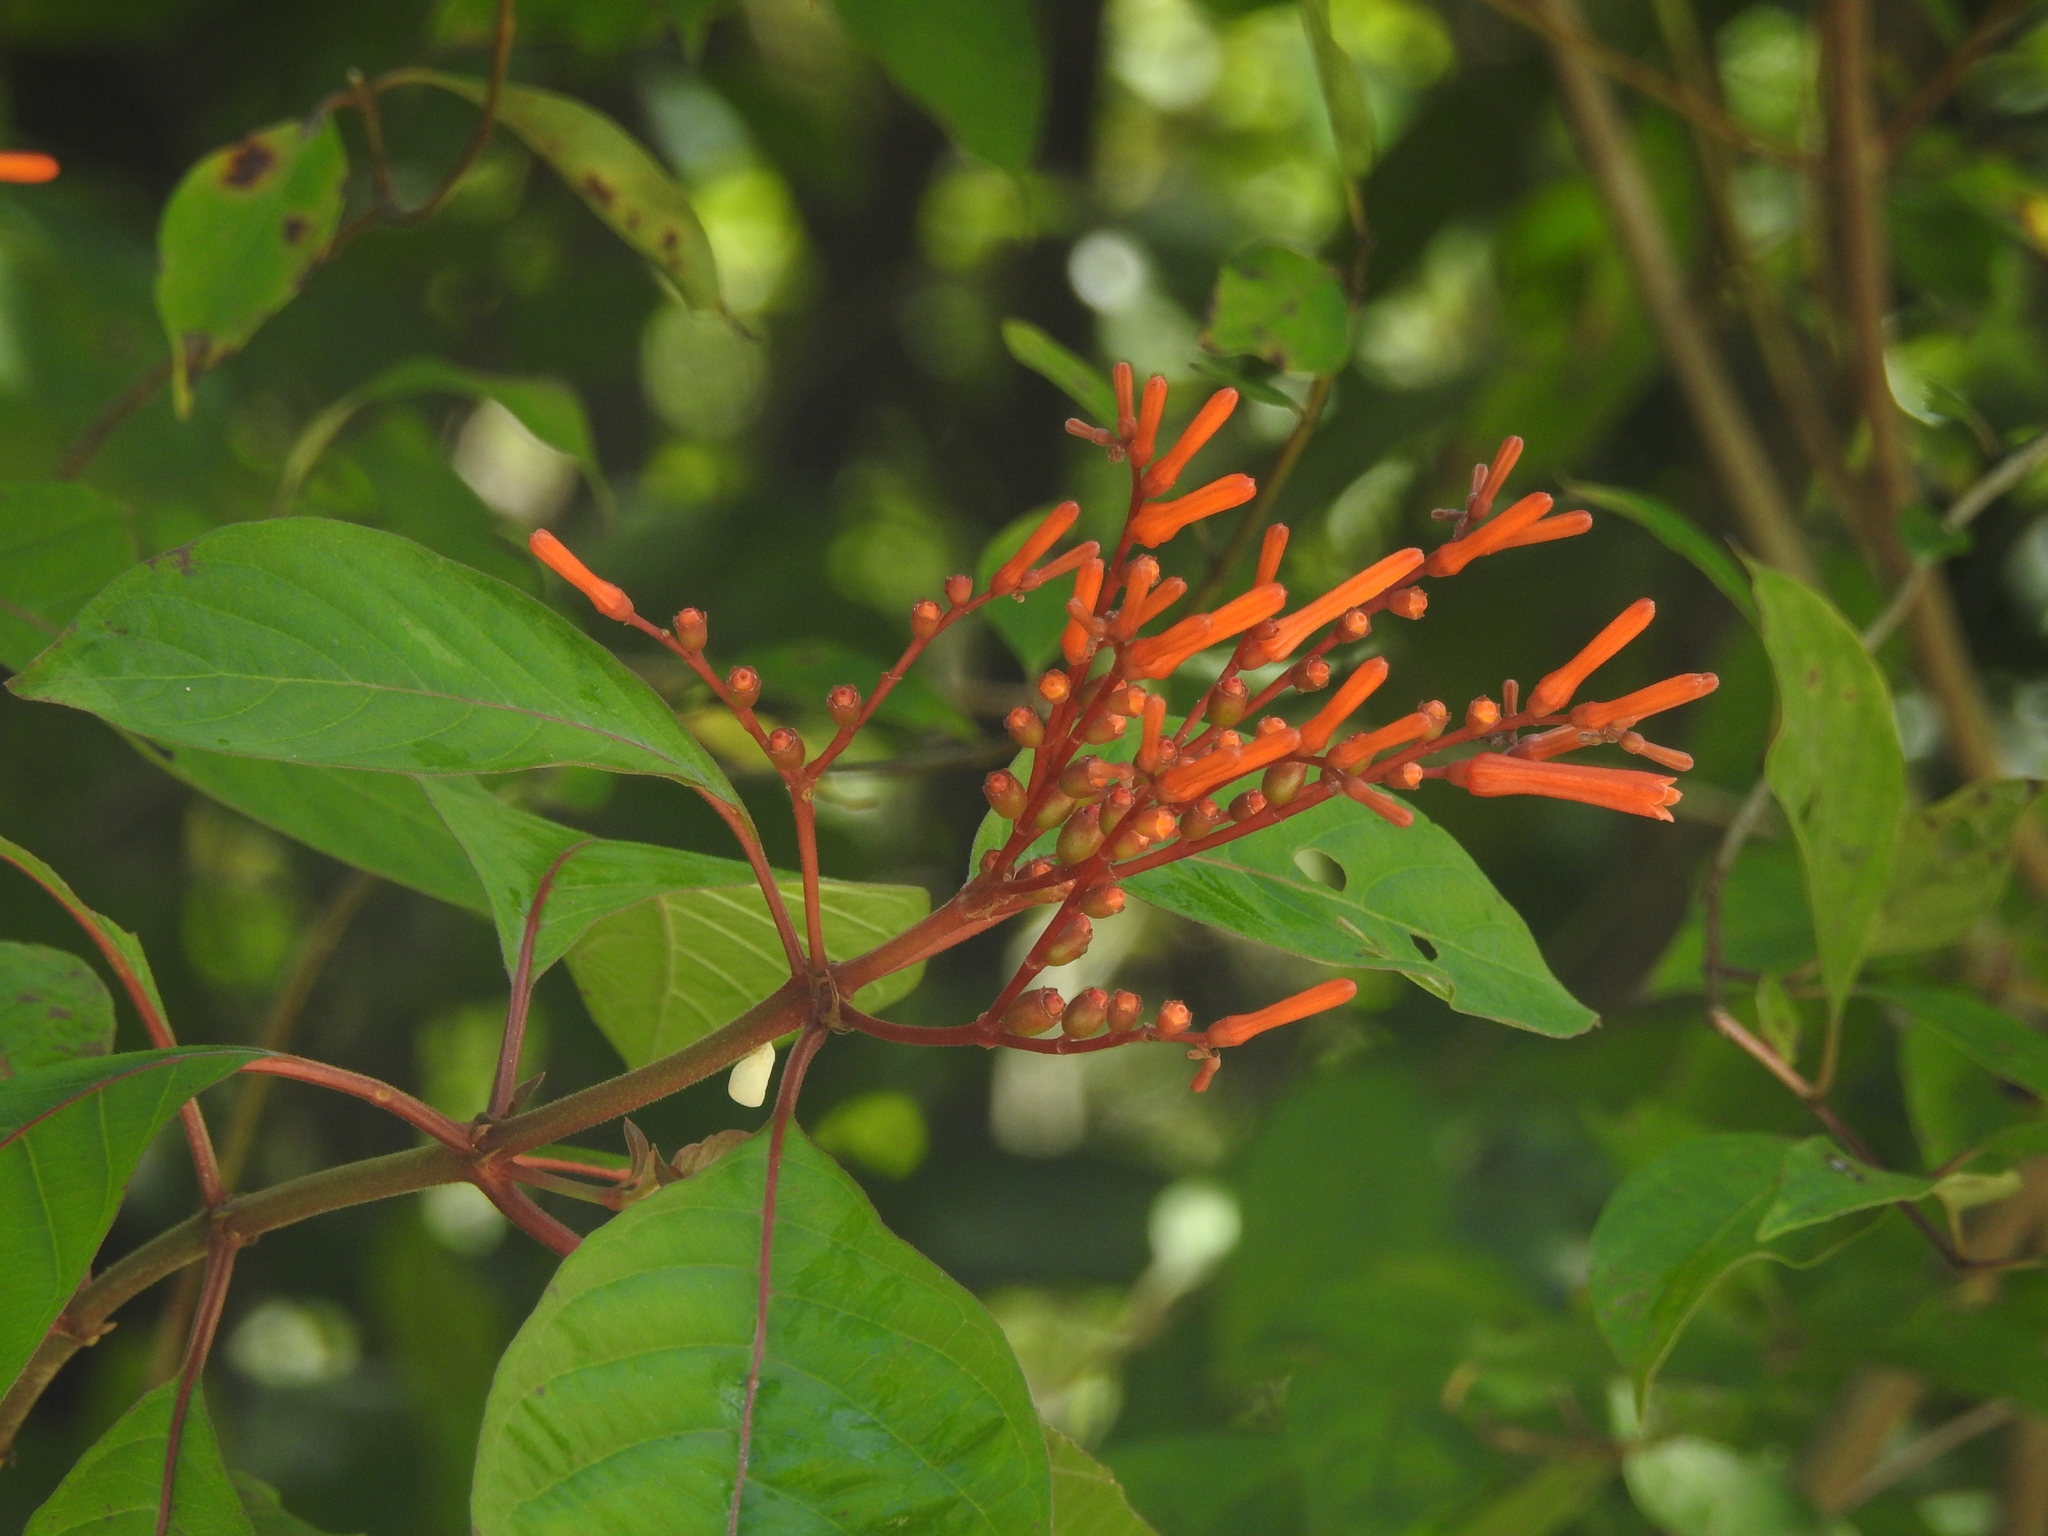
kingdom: Plantae
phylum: Tracheophyta
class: Magnoliopsida
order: Gentianales
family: Rubiaceae
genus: Hamelia
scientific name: Hamelia patens
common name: Redhead
